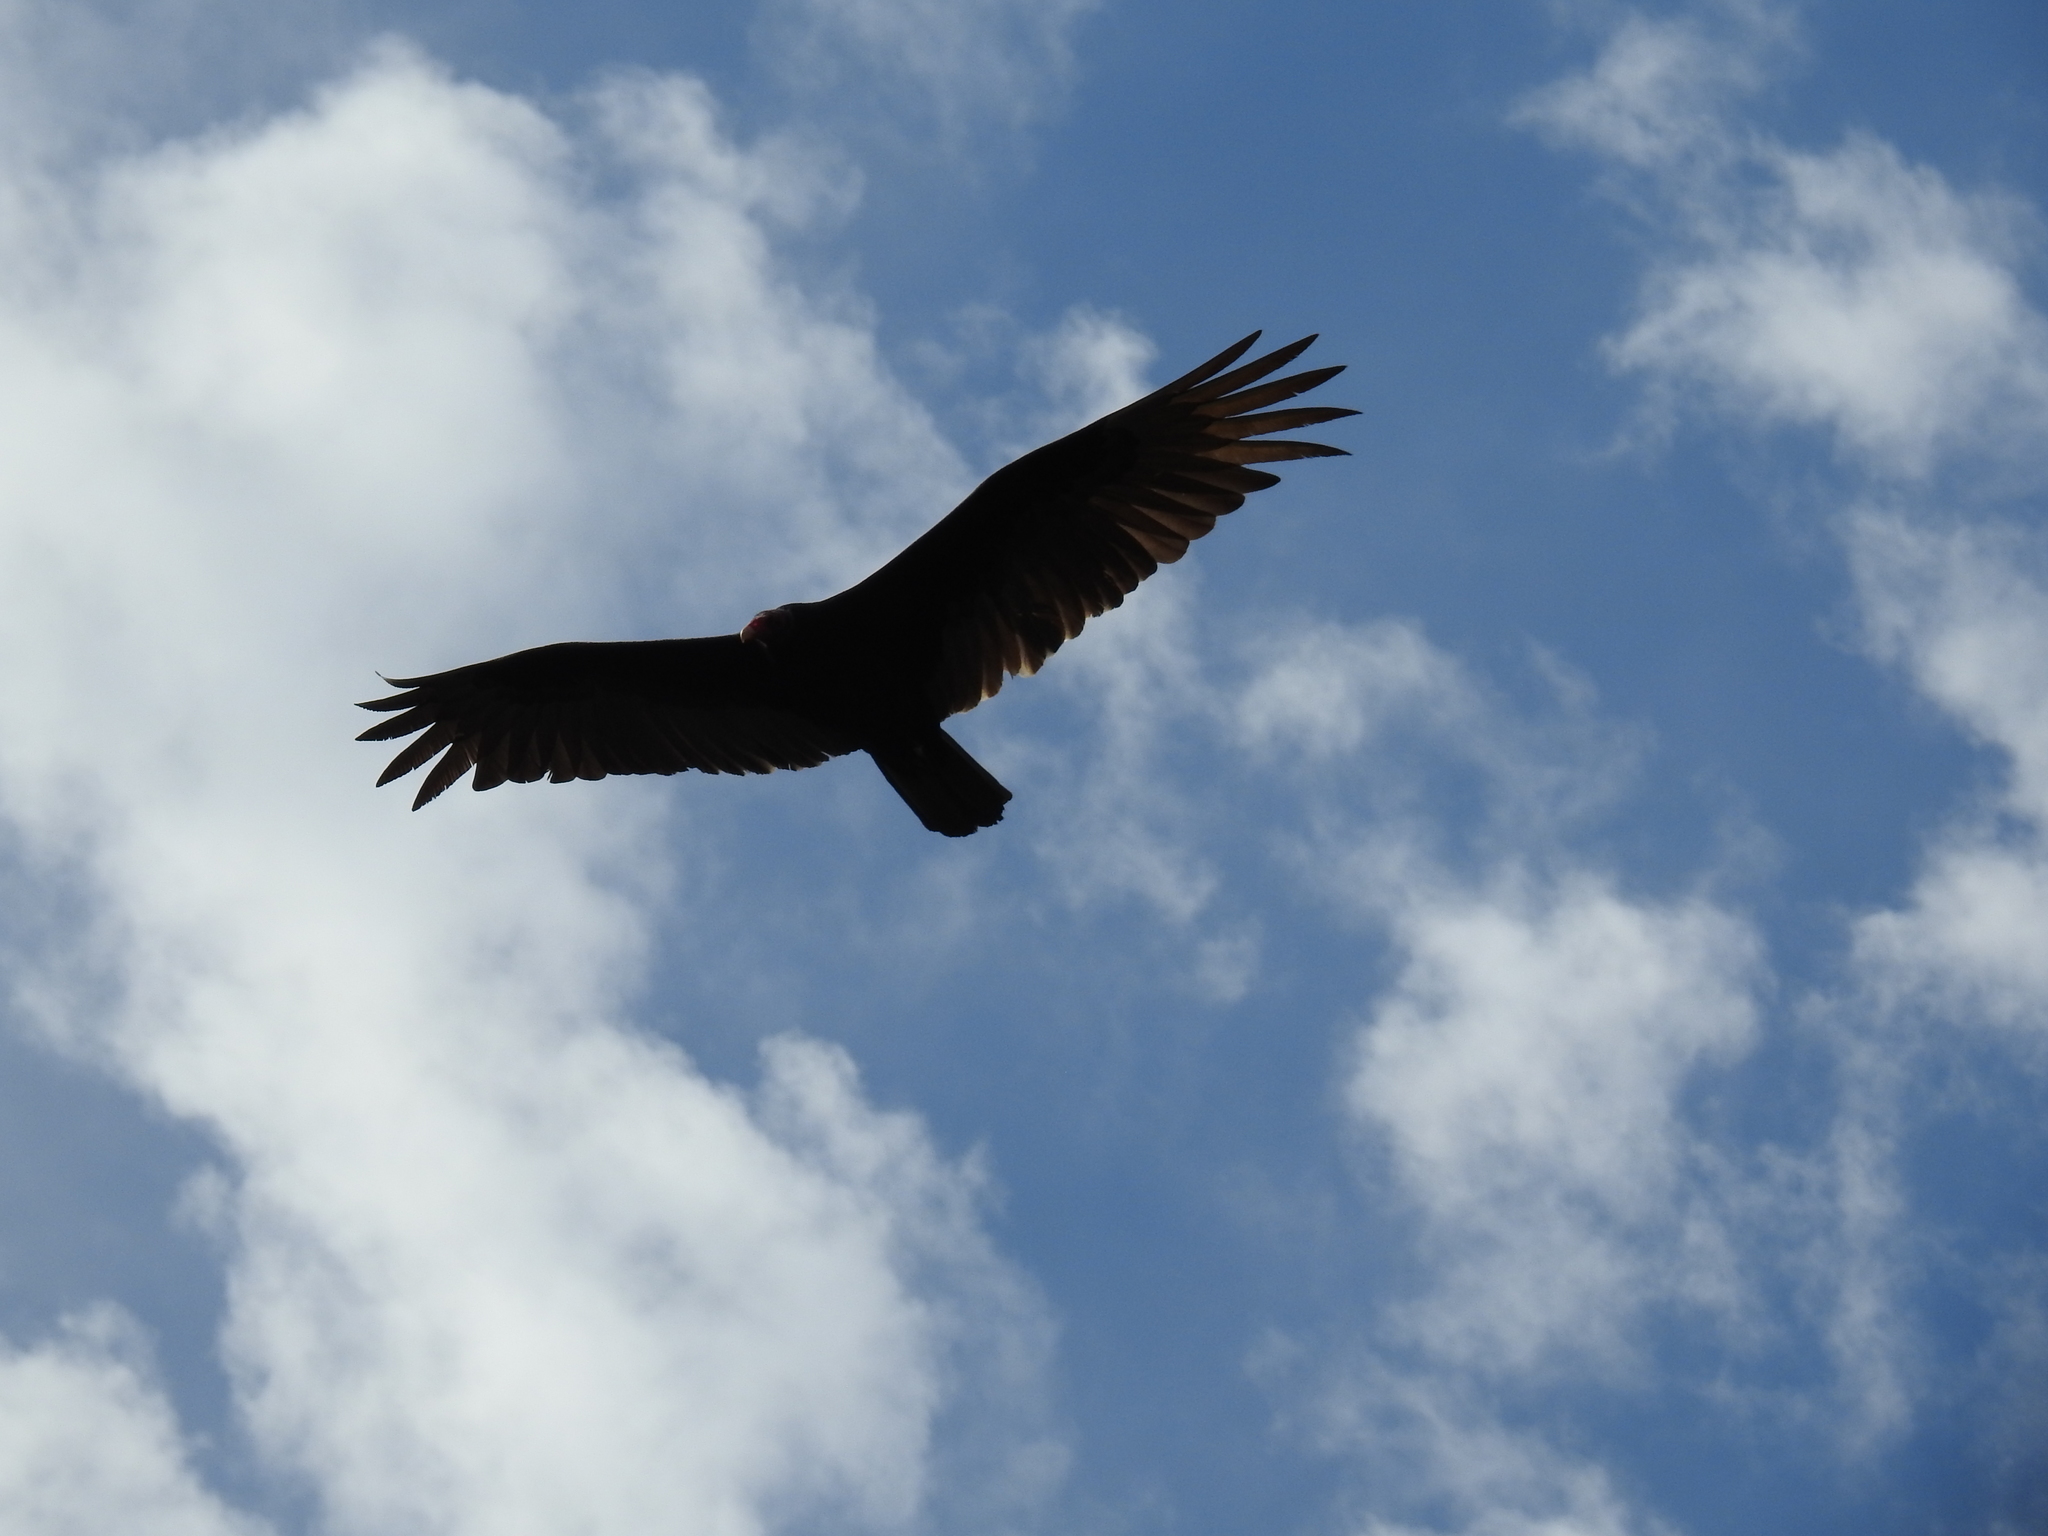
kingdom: Animalia
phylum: Chordata
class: Aves
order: Accipitriformes
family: Cathartidae
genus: Cathartes
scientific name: Cathartes aura
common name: Turkey vulture
